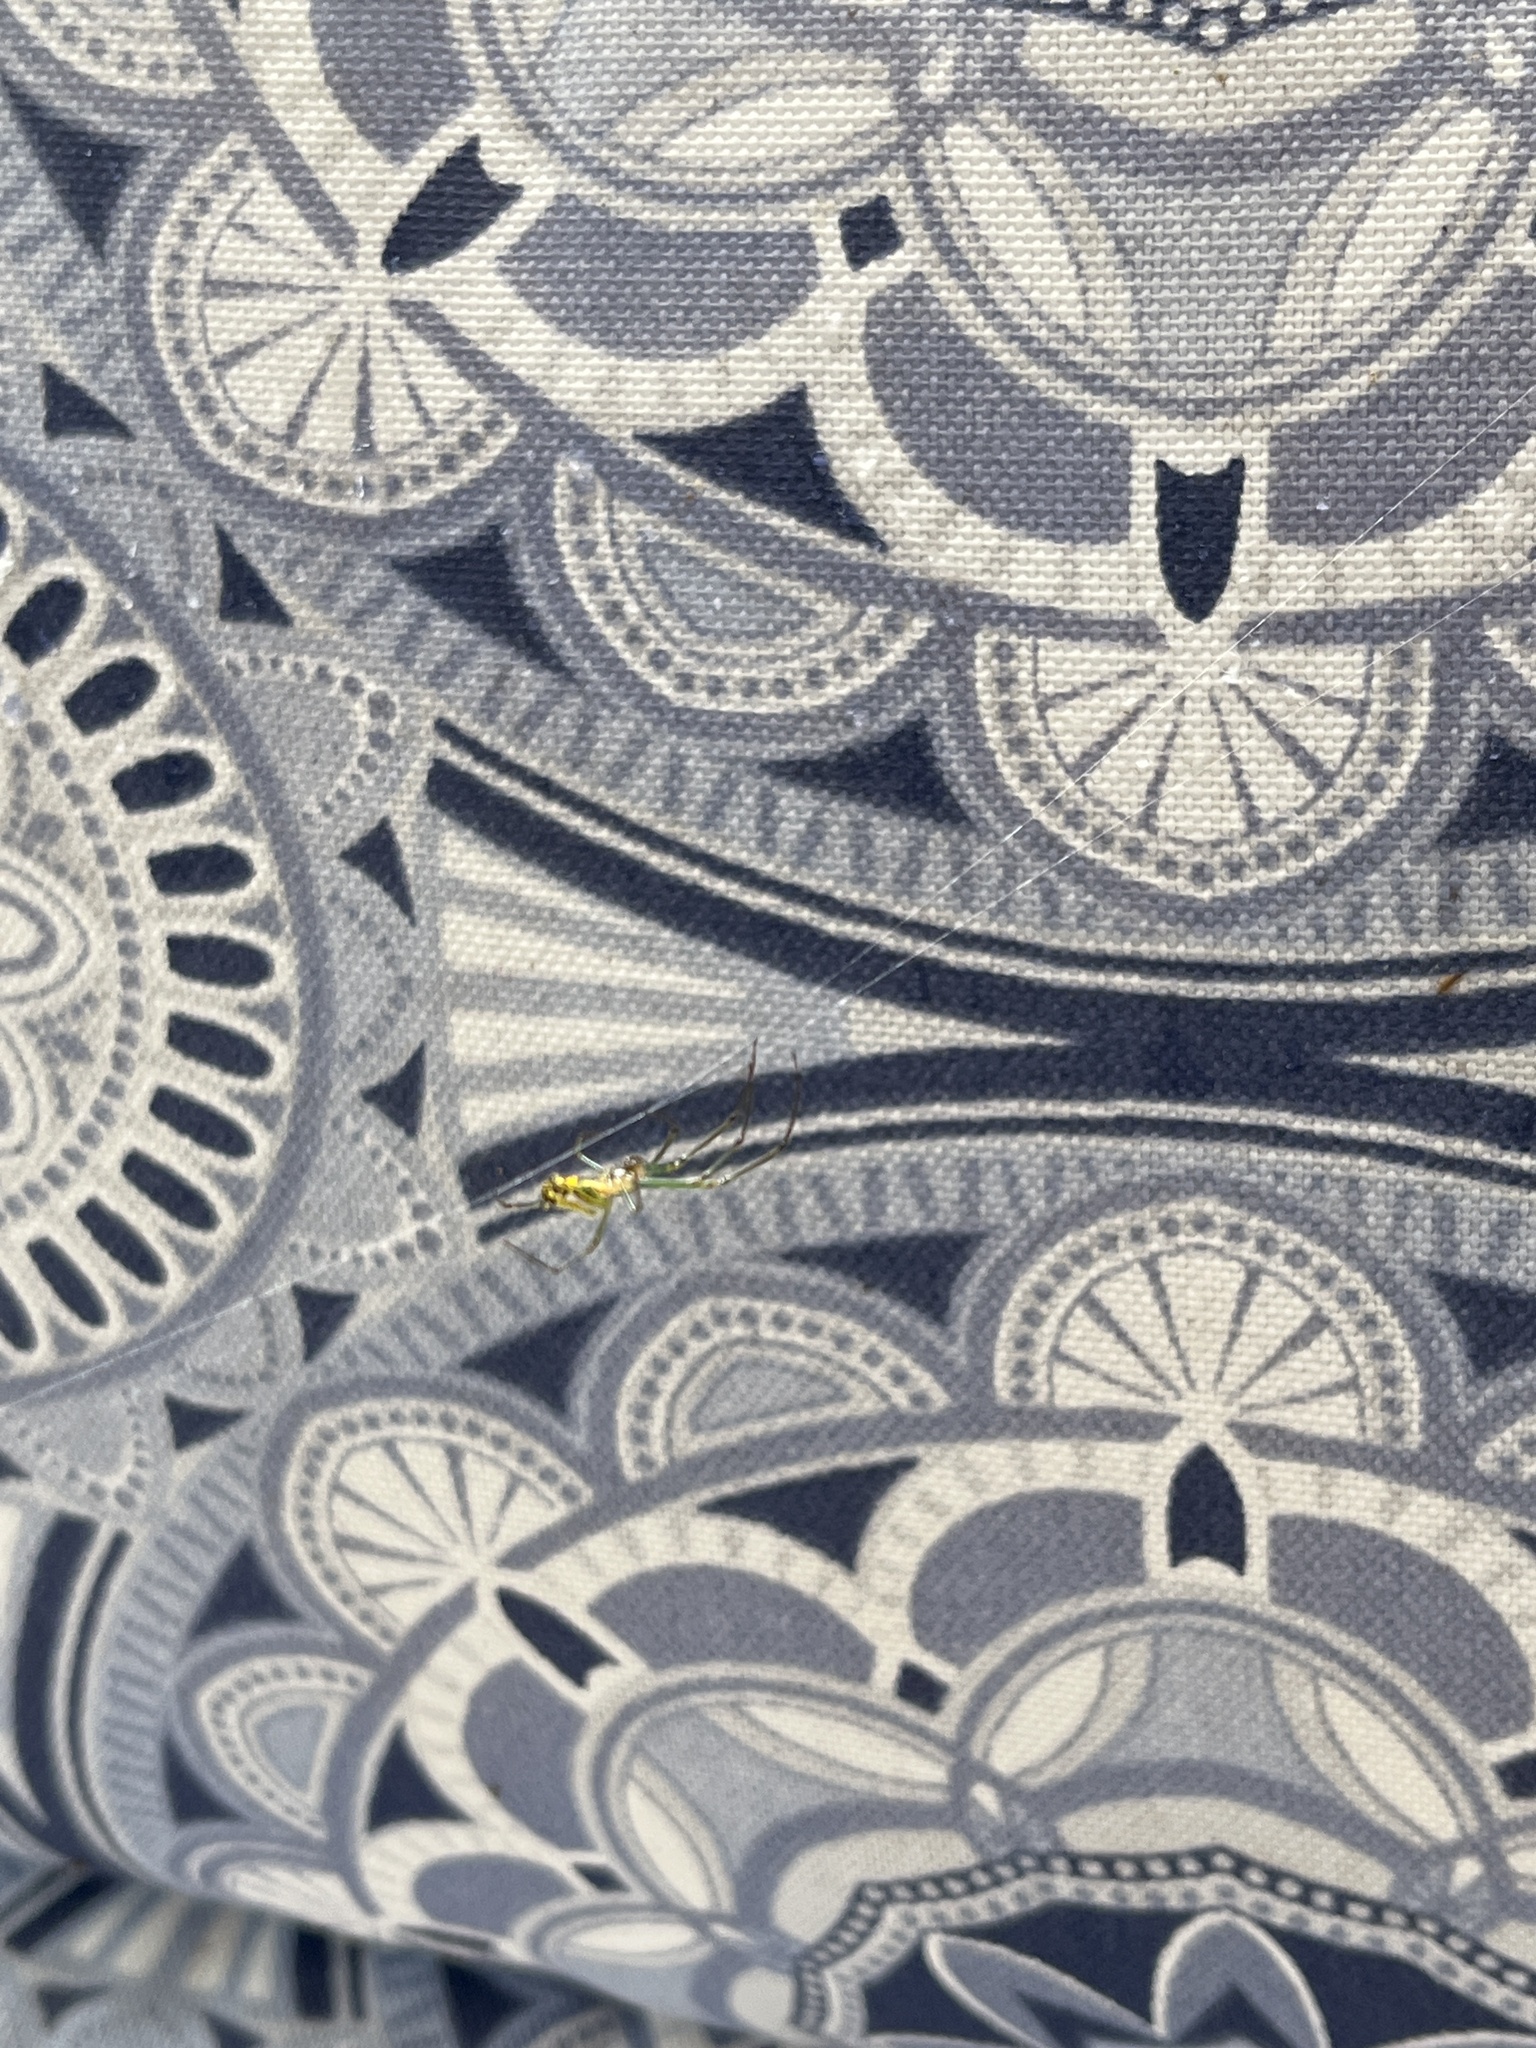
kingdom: Animalia
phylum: Arthropoda
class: Arachnida
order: Araneae
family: Tetragnathidae
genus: Leucauge
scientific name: Leucauge venusta
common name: Longjawed orb weavers
